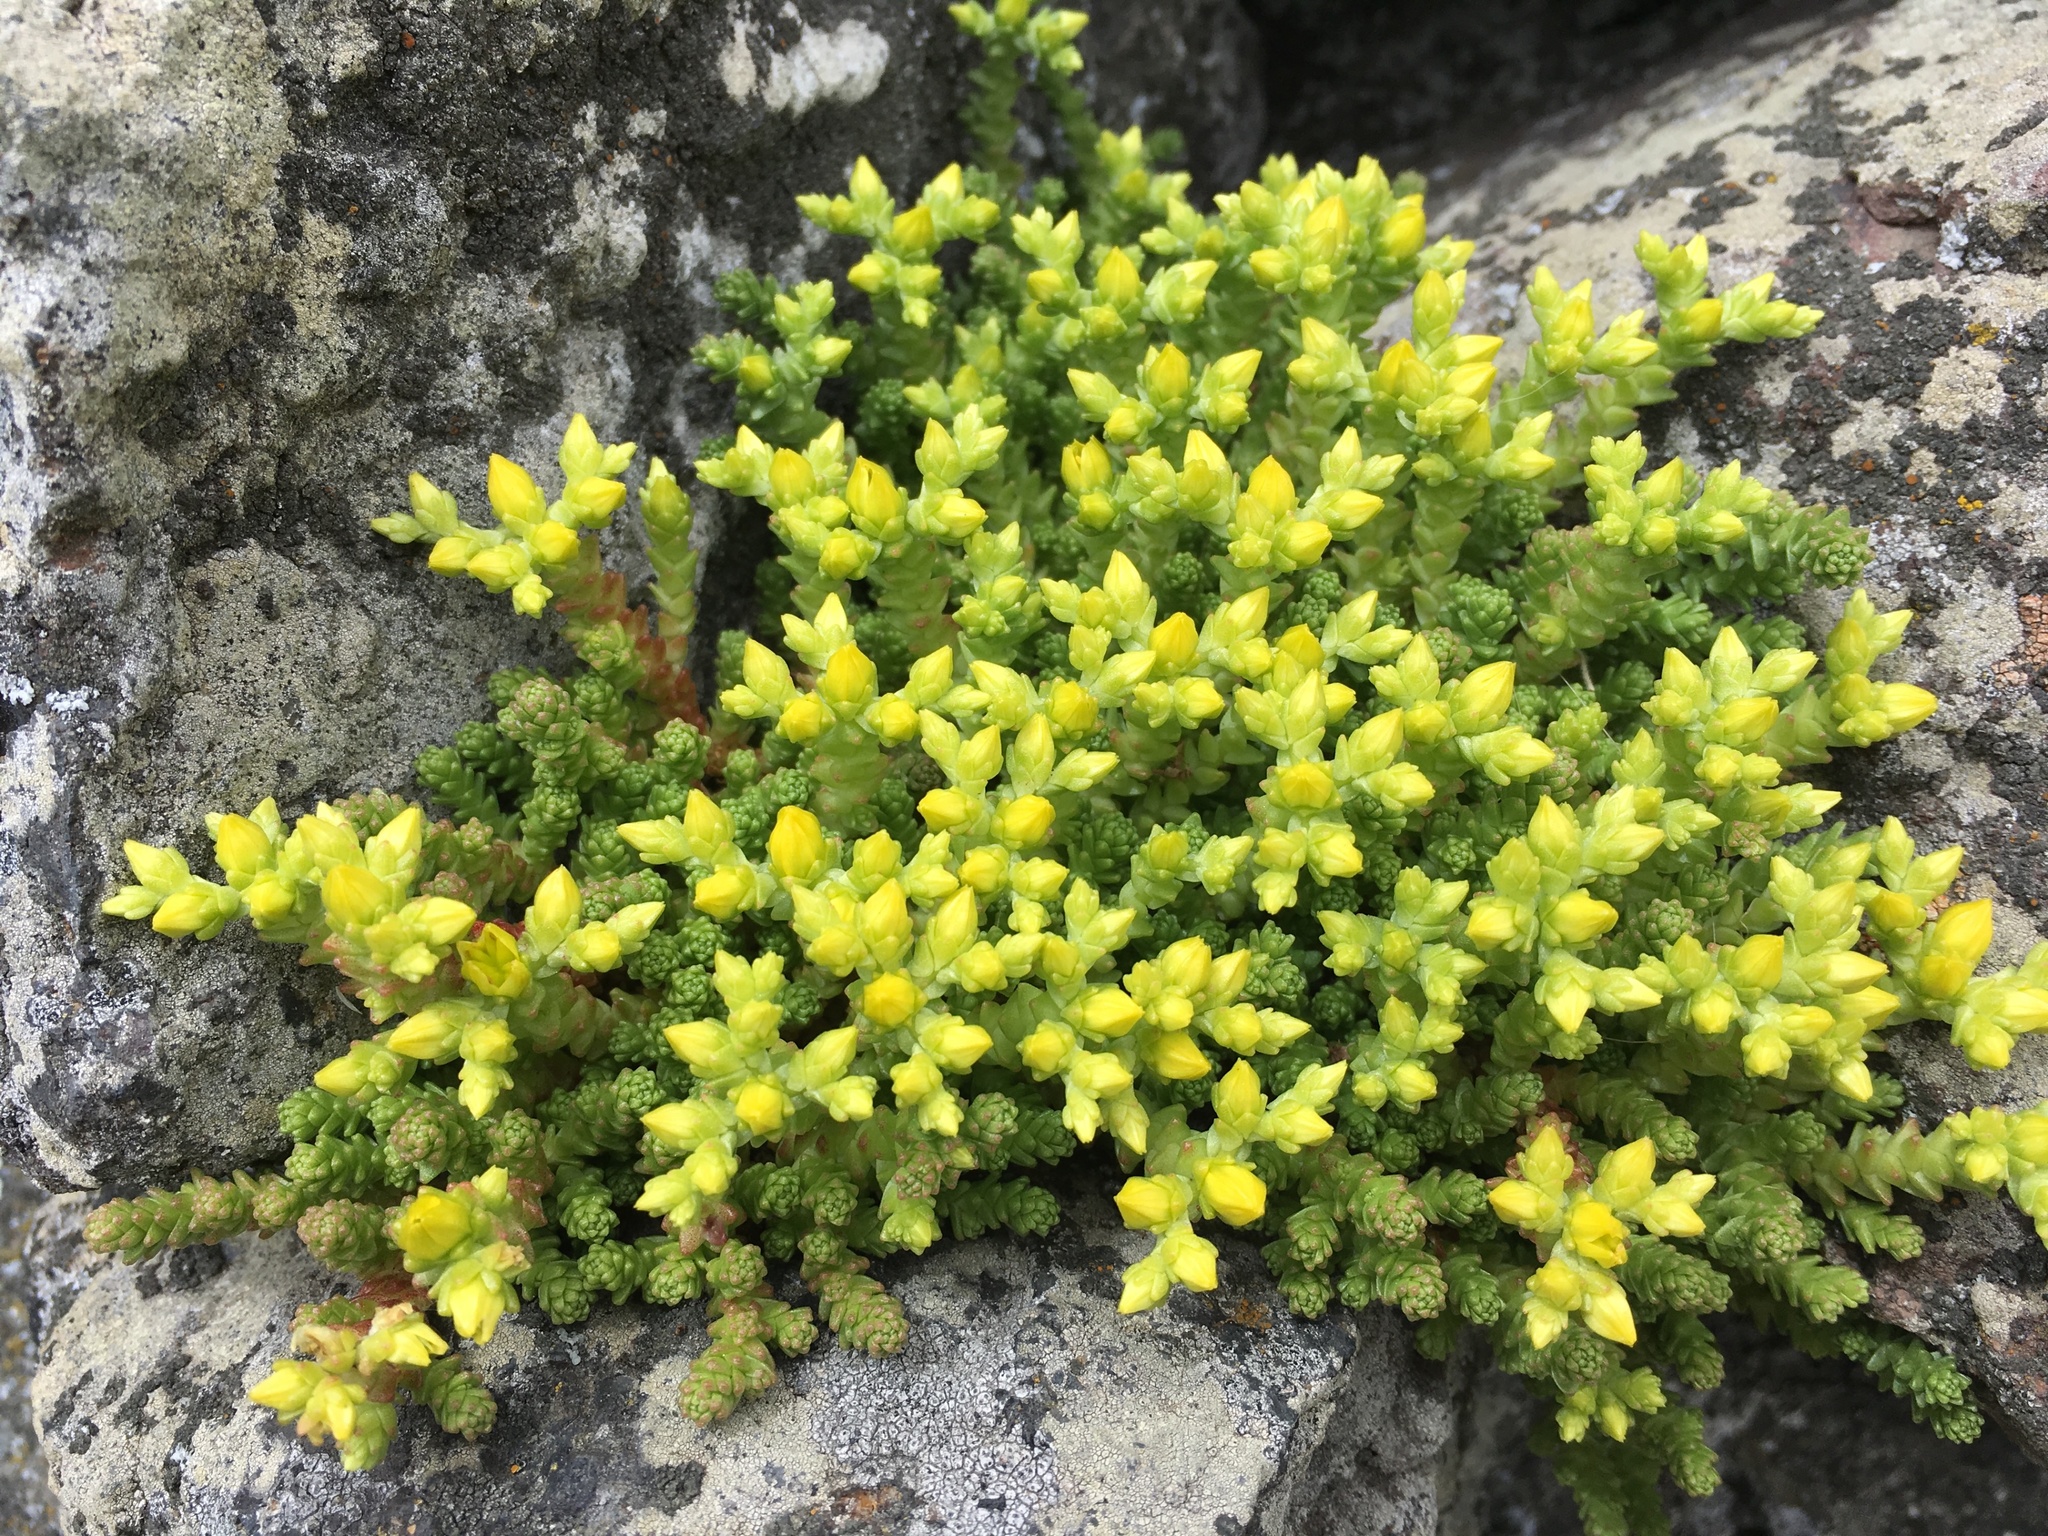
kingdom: Plantae
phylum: Tracheophyta
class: Magnoliopsida
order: Saxifragales
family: Crassulaceae
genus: Sedum
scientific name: Sedum acre
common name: Biting stonecrop
